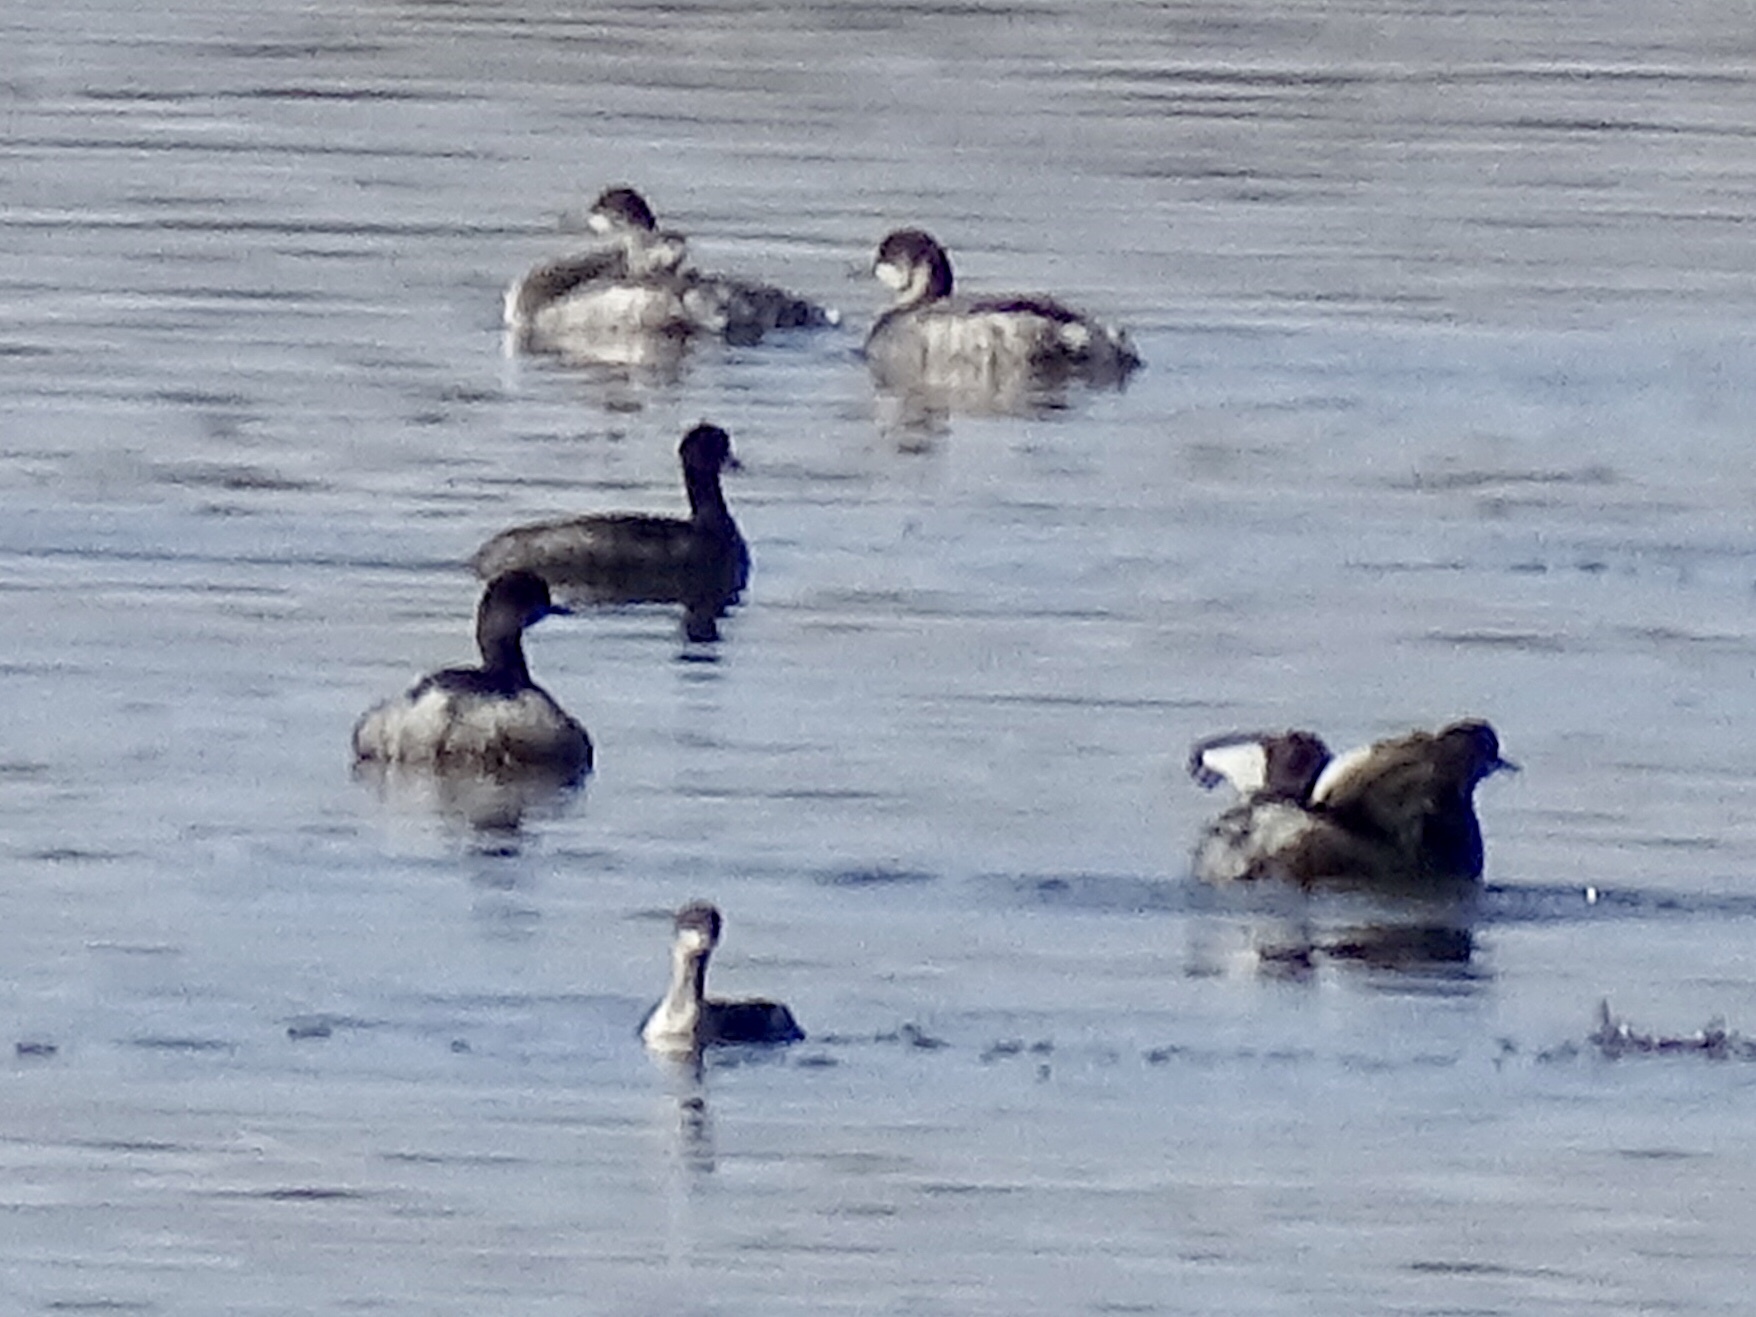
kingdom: Animalia
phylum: Chordata
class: Aves
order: Podicipediformes
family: Podicipedidae
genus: Podiceps
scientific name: Podiceps nigricollis
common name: Black-necked grebe
